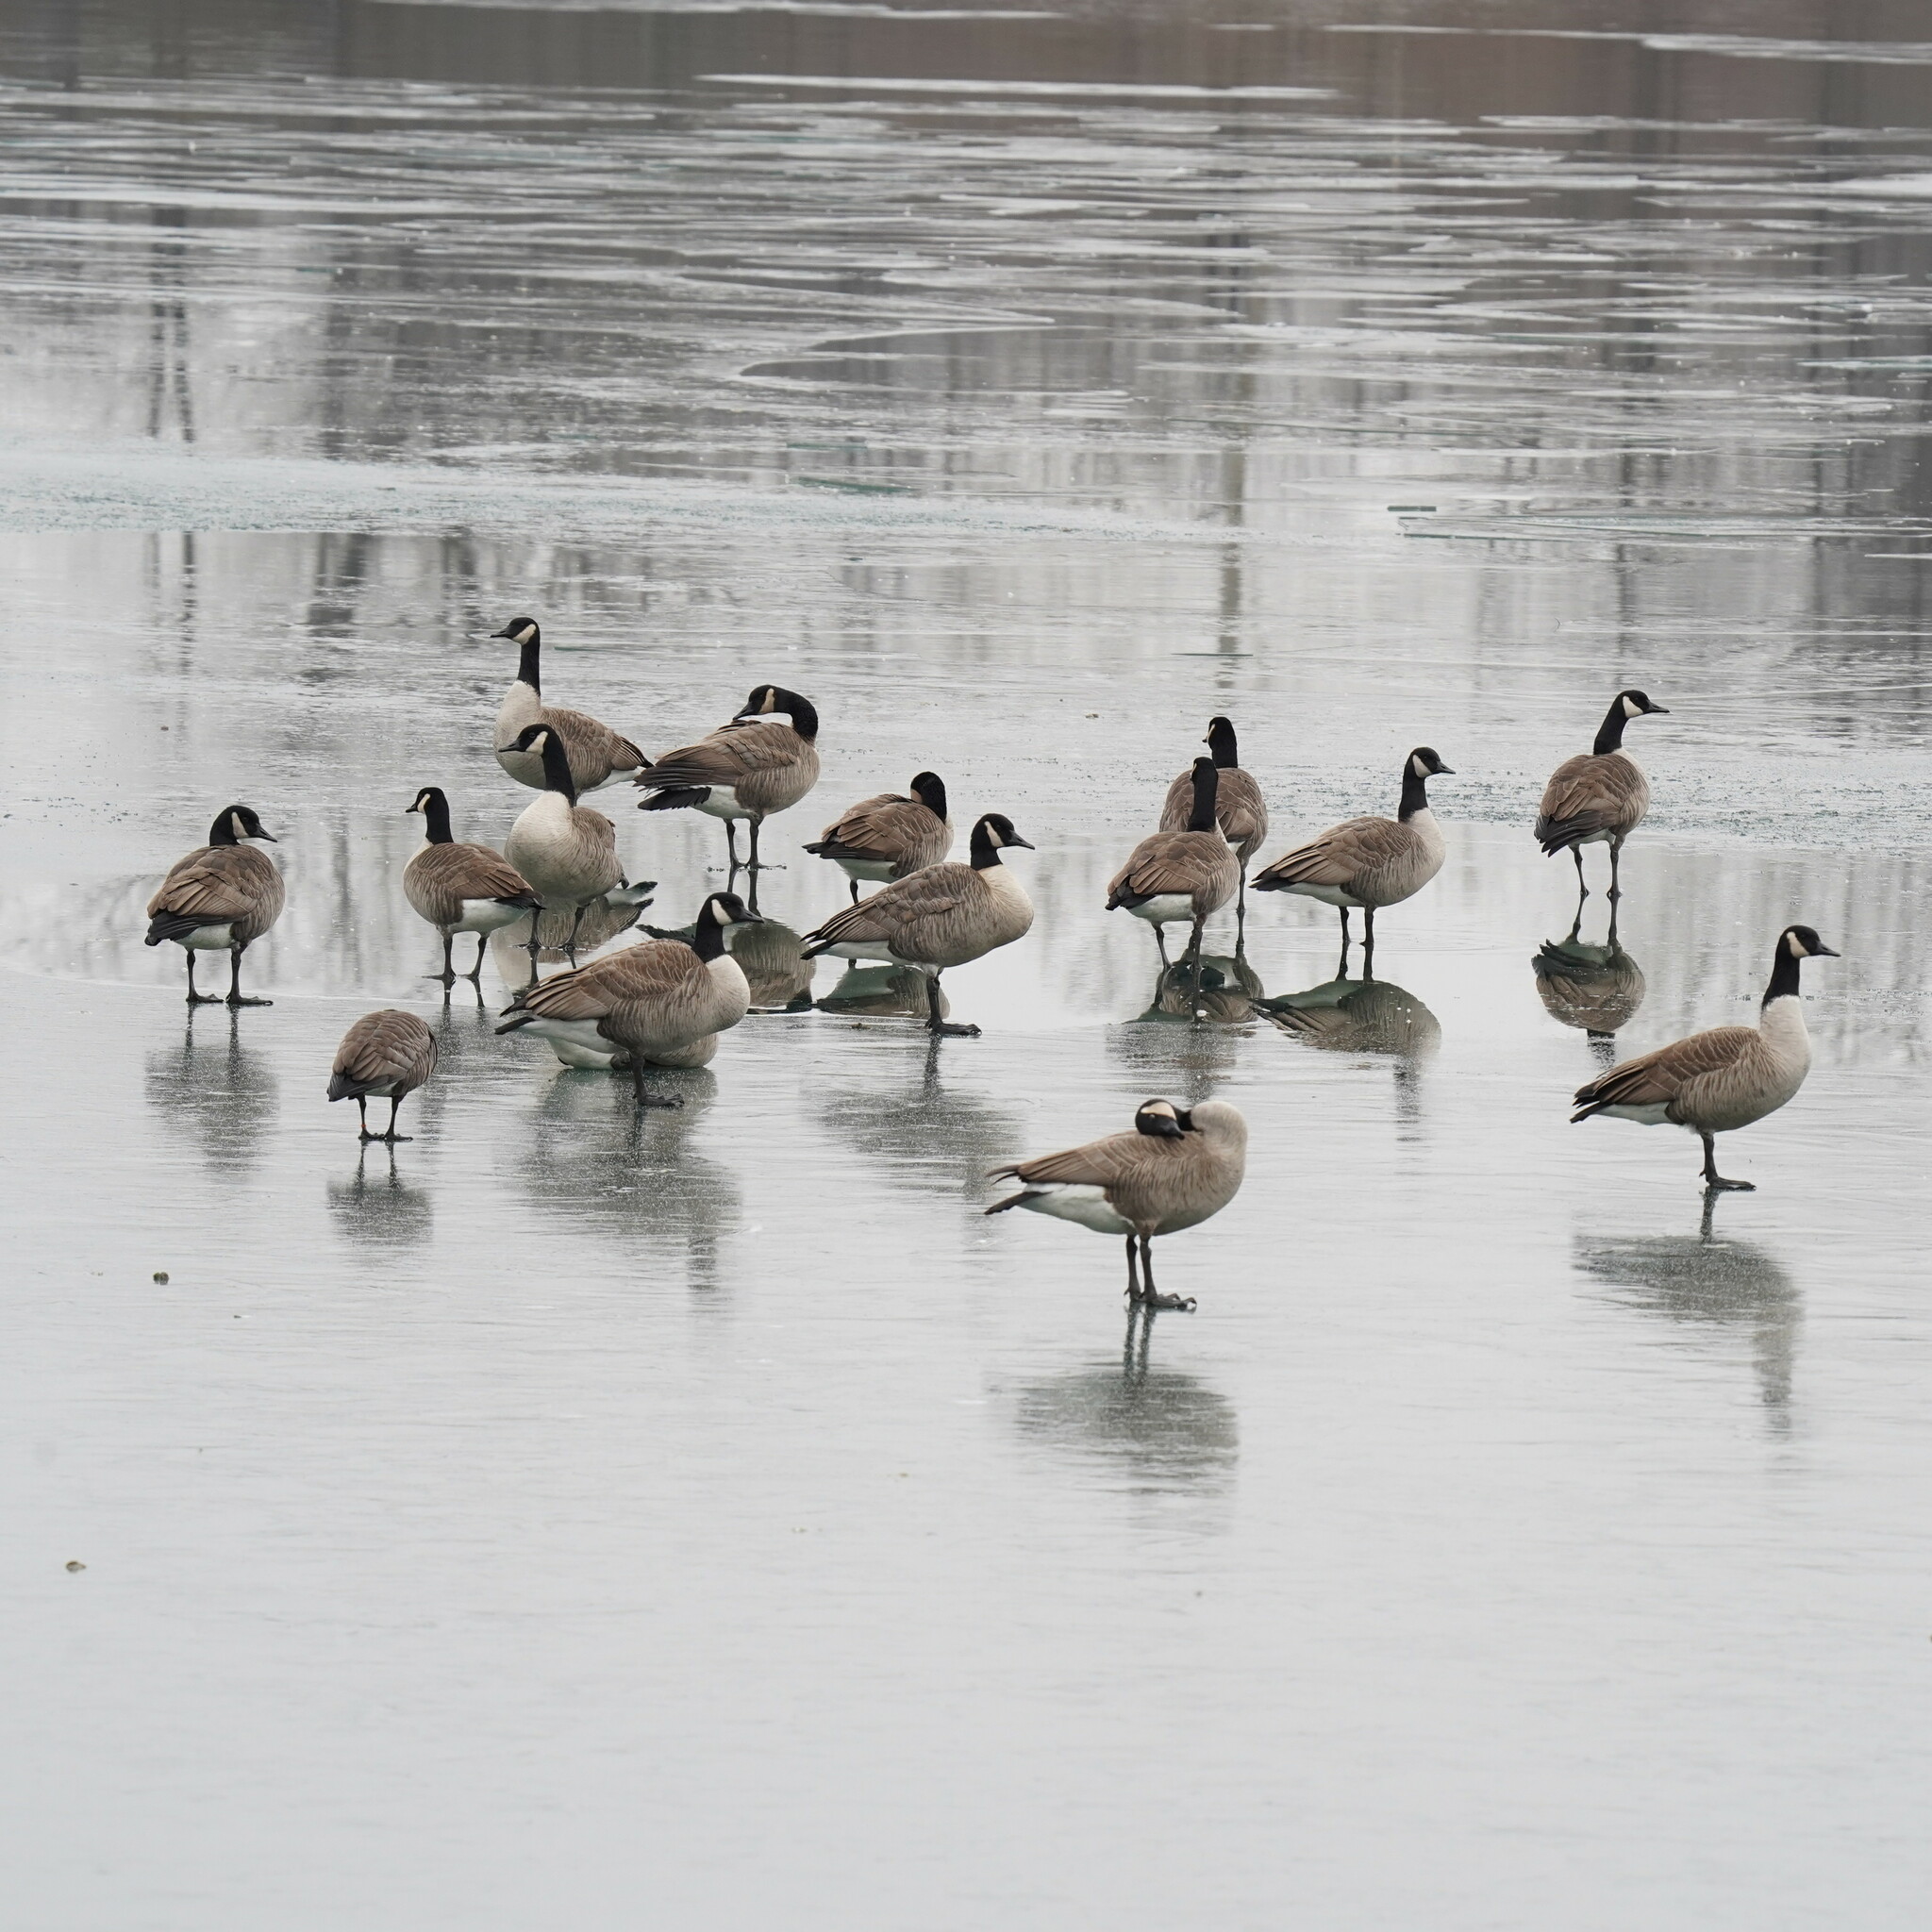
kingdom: Animalia
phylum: Chordata
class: Aves
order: Anseriformes
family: Anatidae
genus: Branta
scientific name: Branta canadensis
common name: Canada goose
